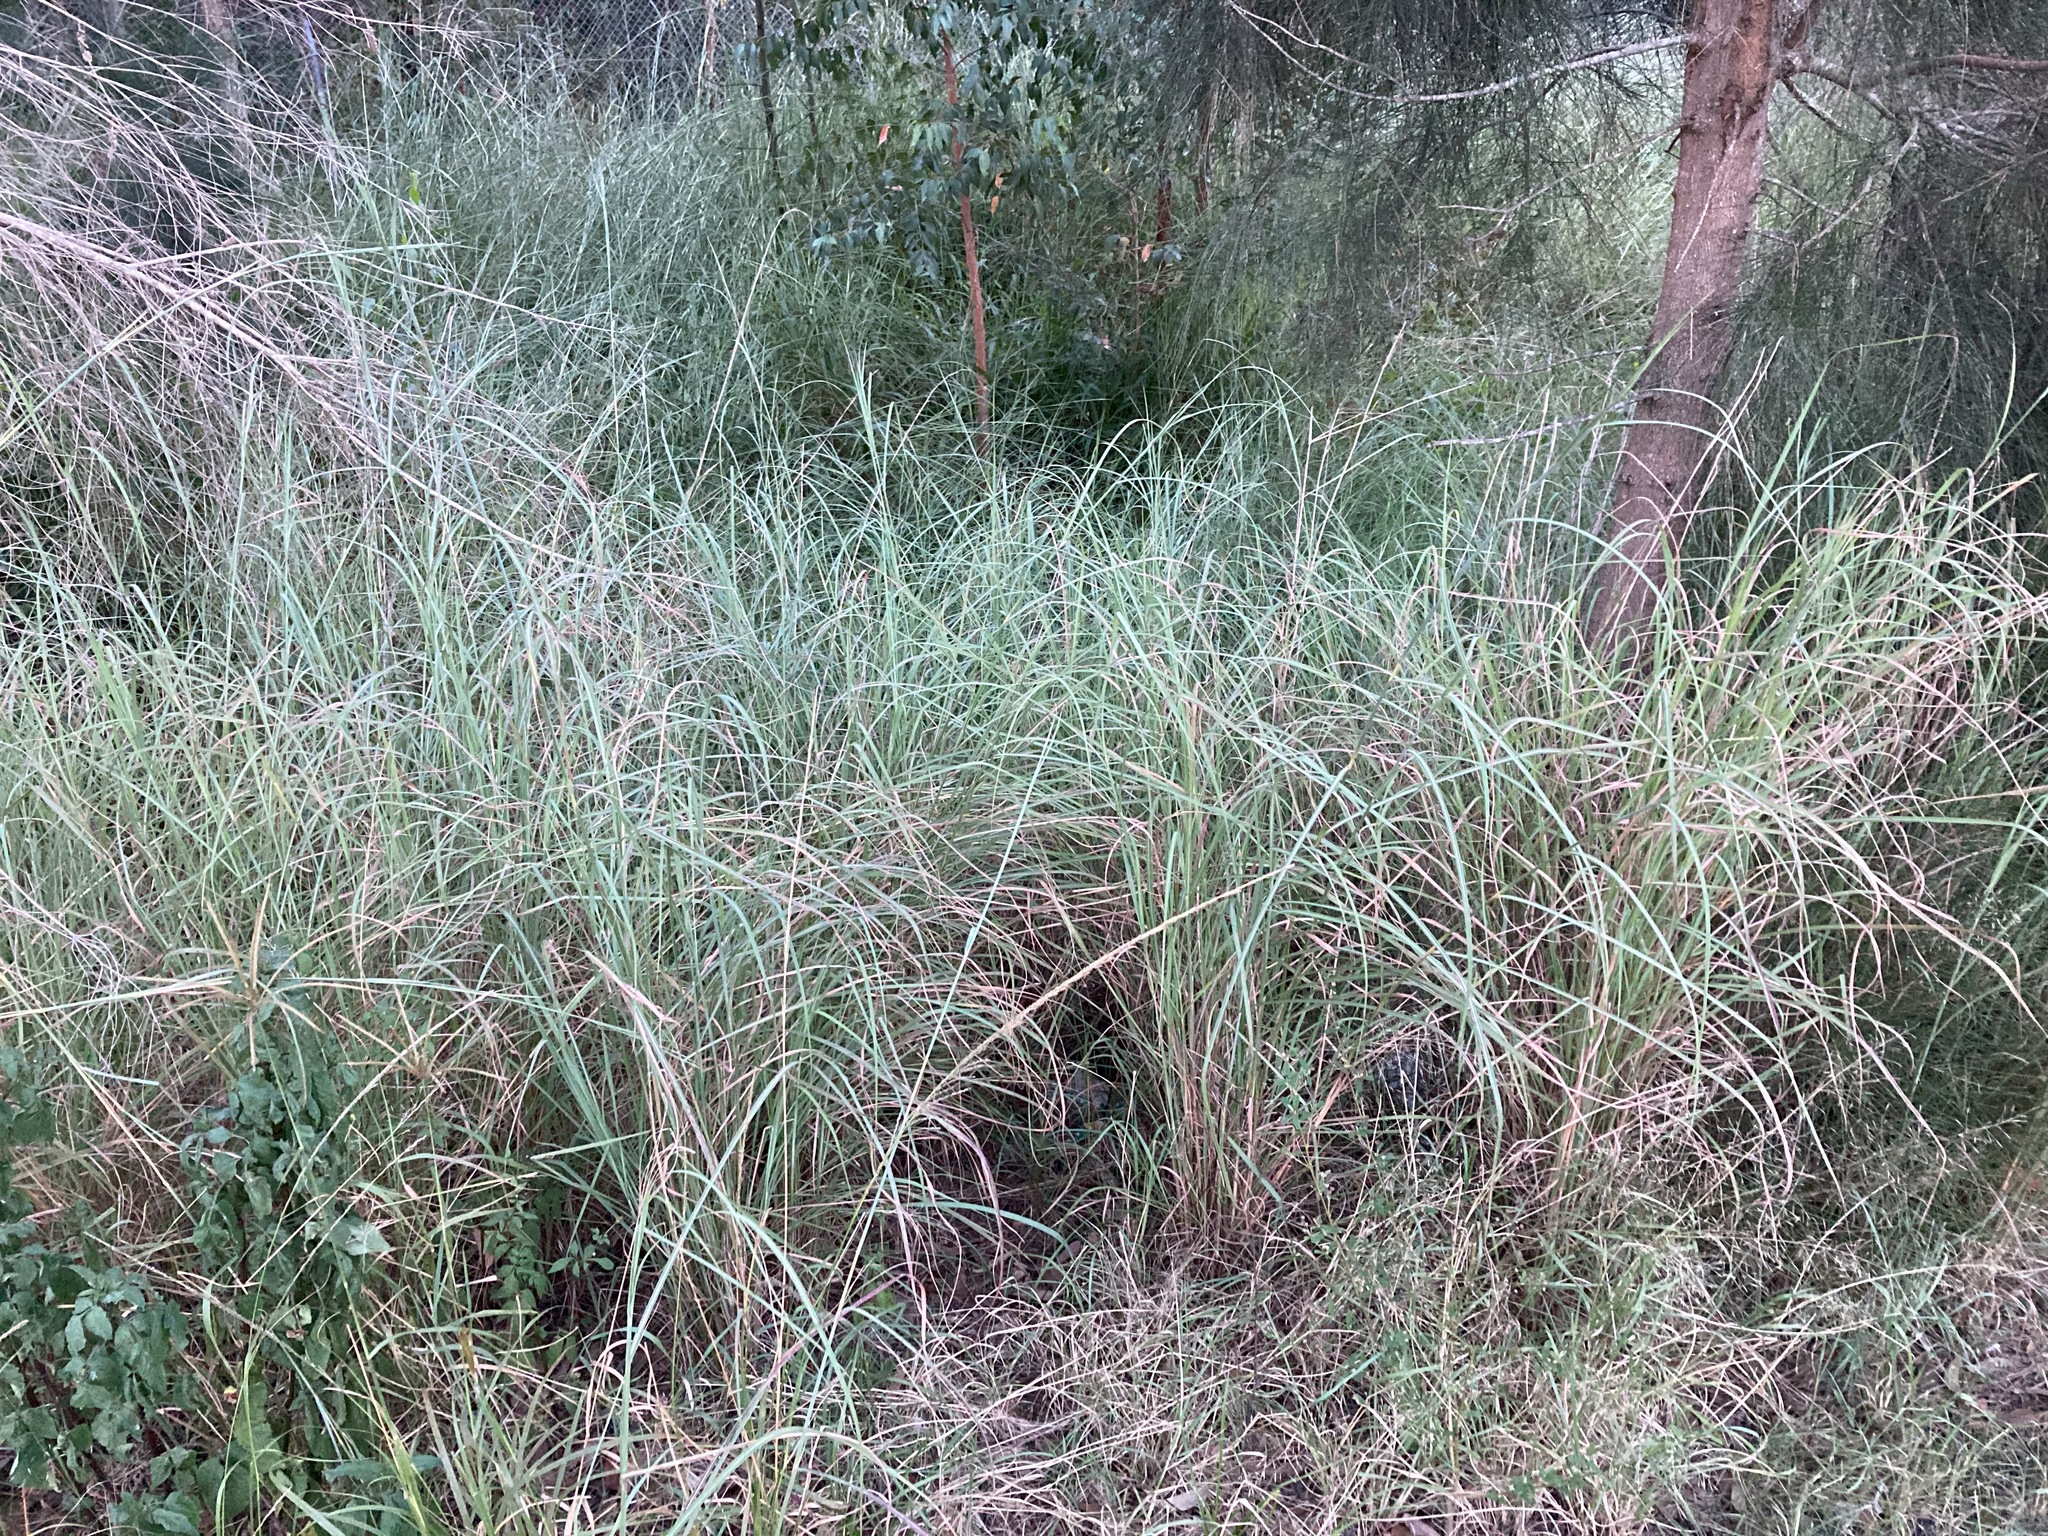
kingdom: Plantae
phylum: Tracheophyta
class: Liliopsida
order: Poales
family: Poaceae
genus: Bothriochloa
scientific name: Bothriochloa pertusa
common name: Pitted beardgrass
